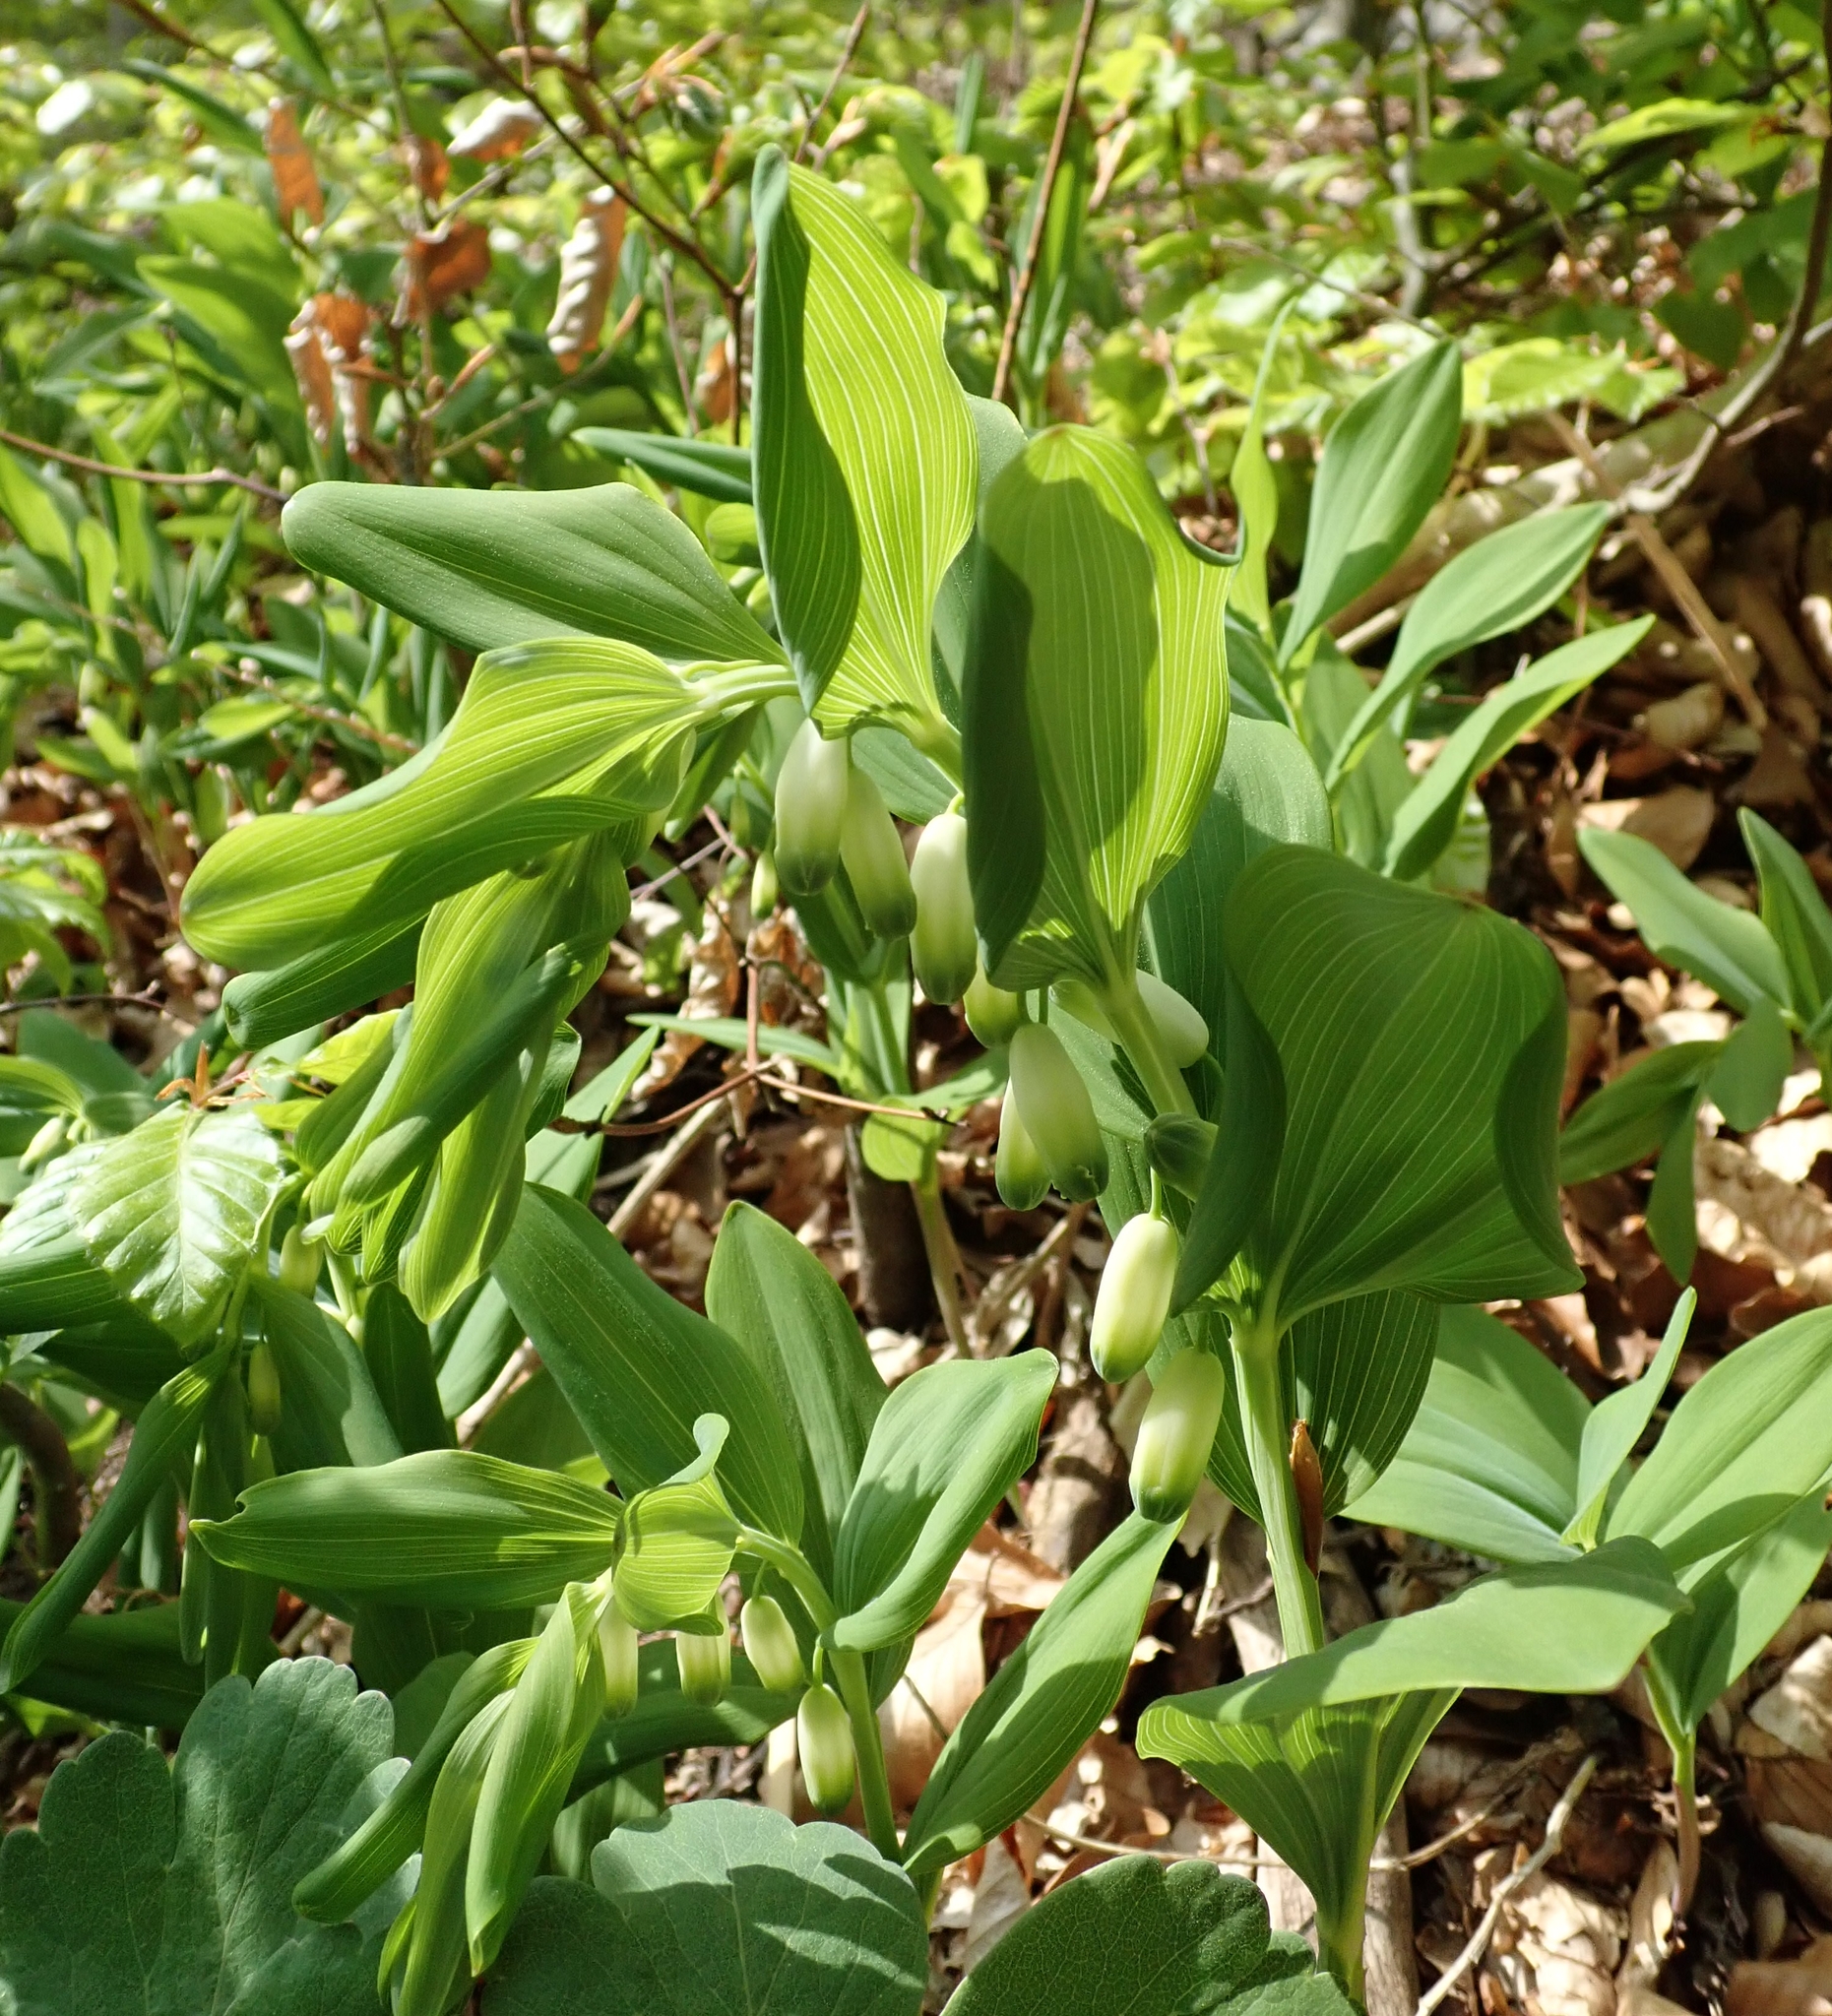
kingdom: Plantae
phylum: Tracheophyta
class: Liliopsida
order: Asparagales
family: Asparagaceae
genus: Polygonatum
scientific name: Polygonatum odoratum
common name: Angular solomon's-seal
